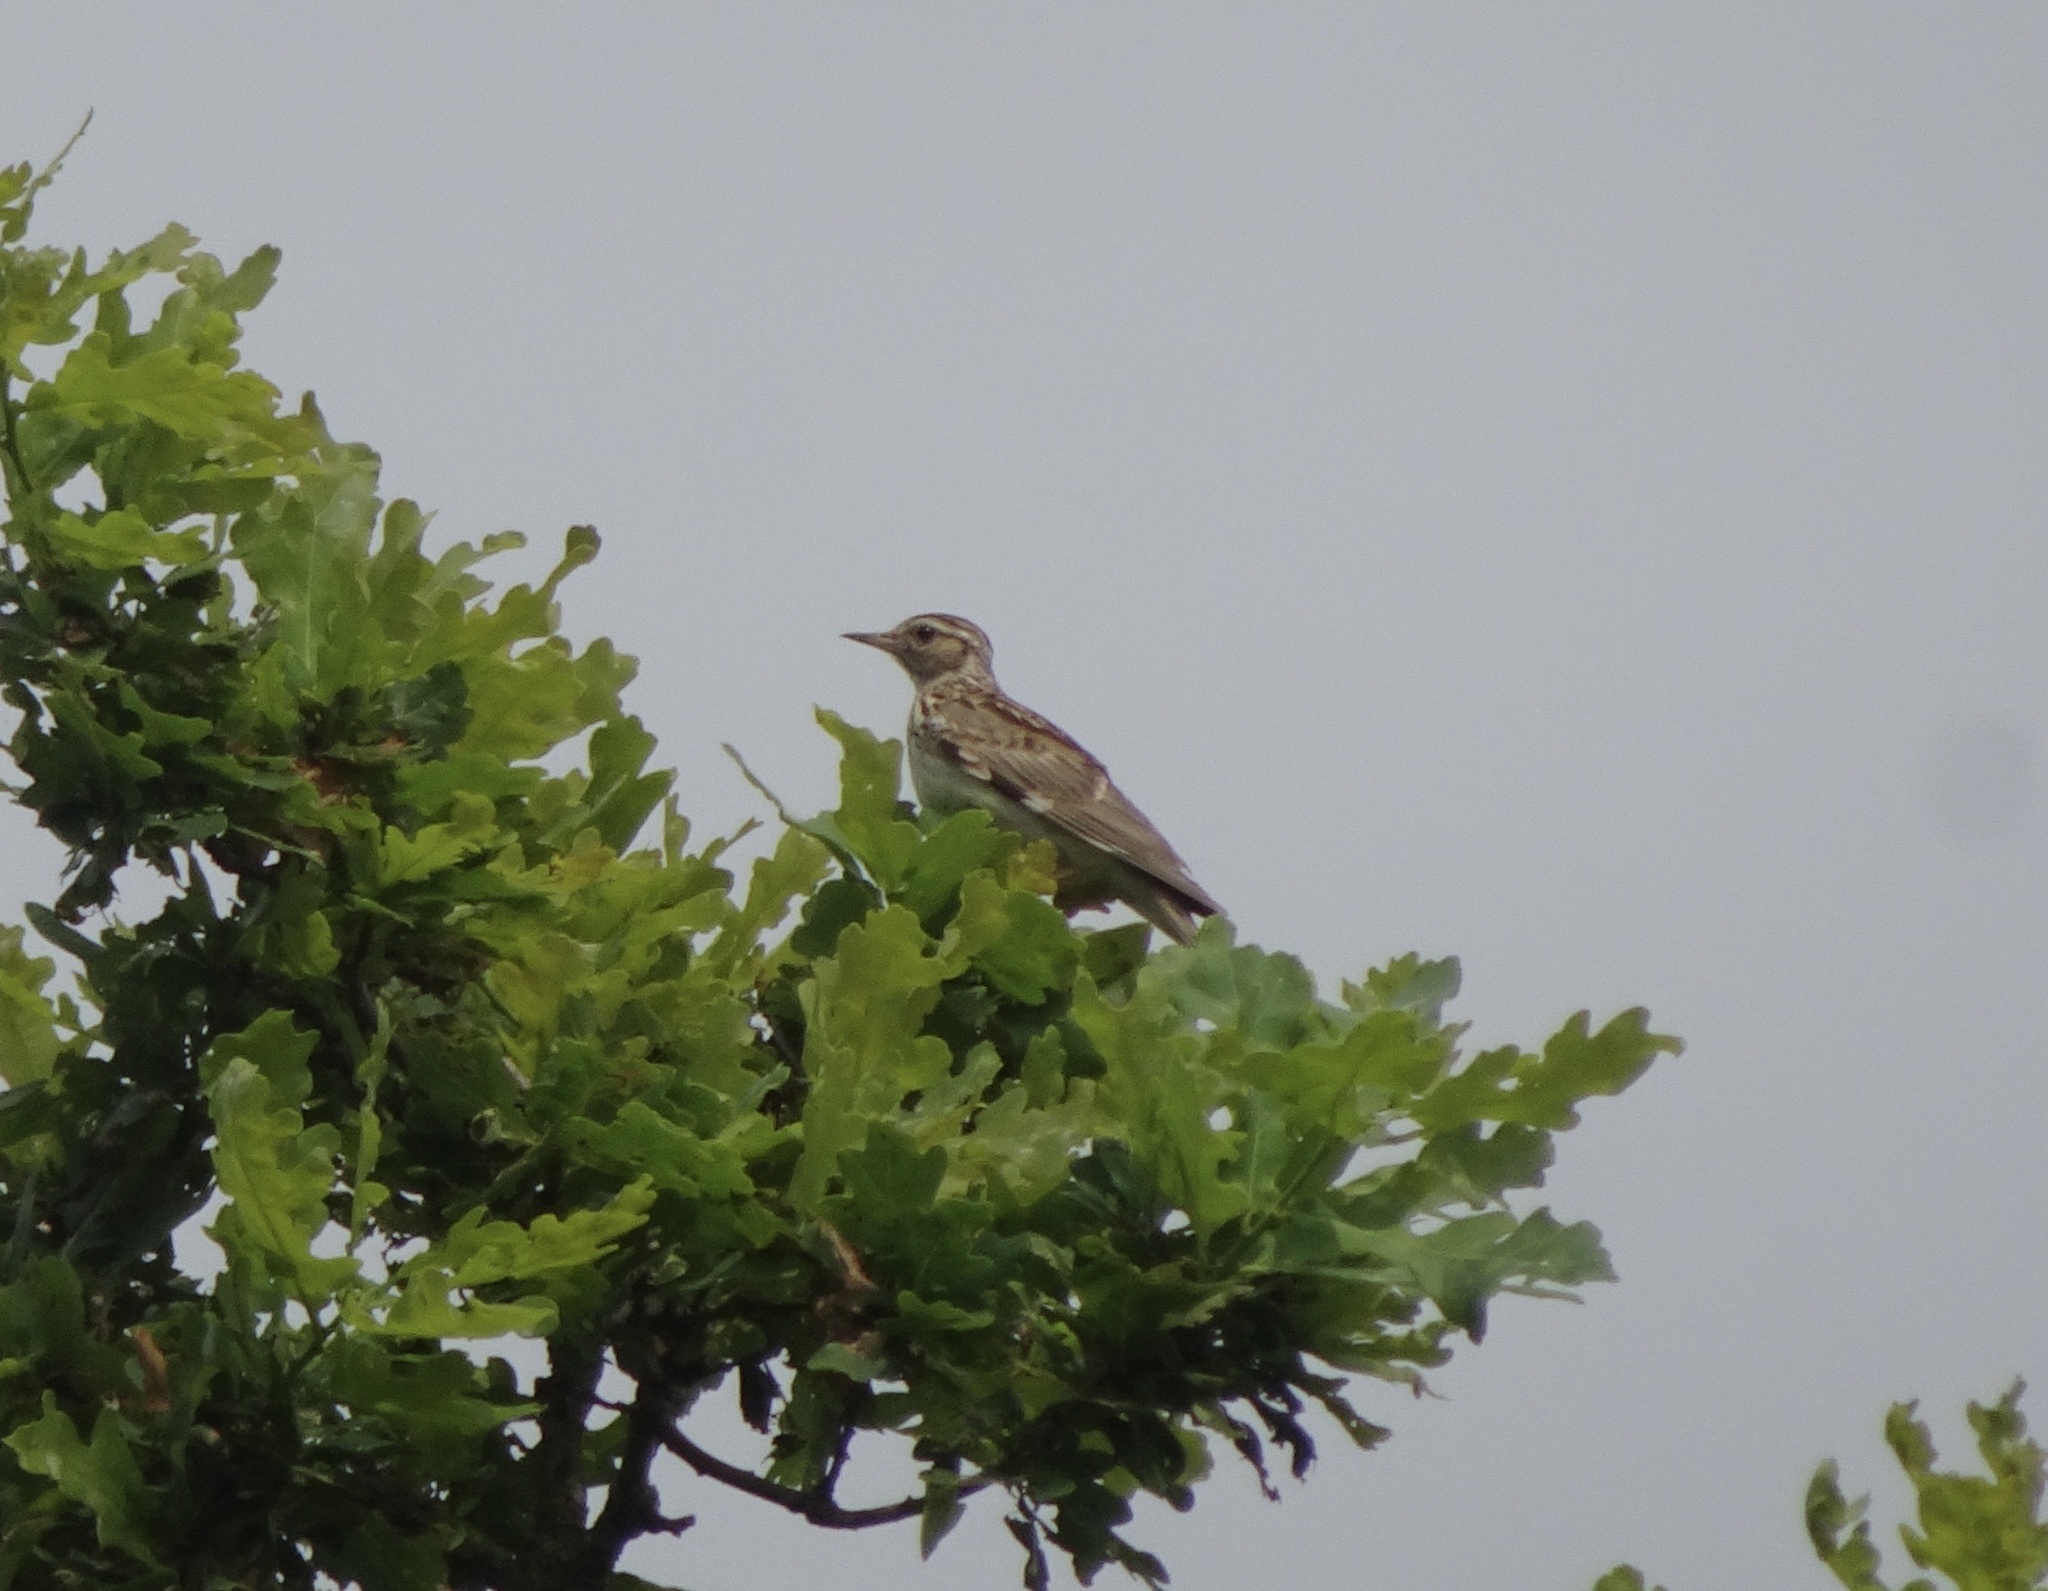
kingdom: Animalia
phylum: Chordata
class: Aves
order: Passeriformes
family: Alaudidae
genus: Lullula
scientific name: Lullula arborea
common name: Woodlark
